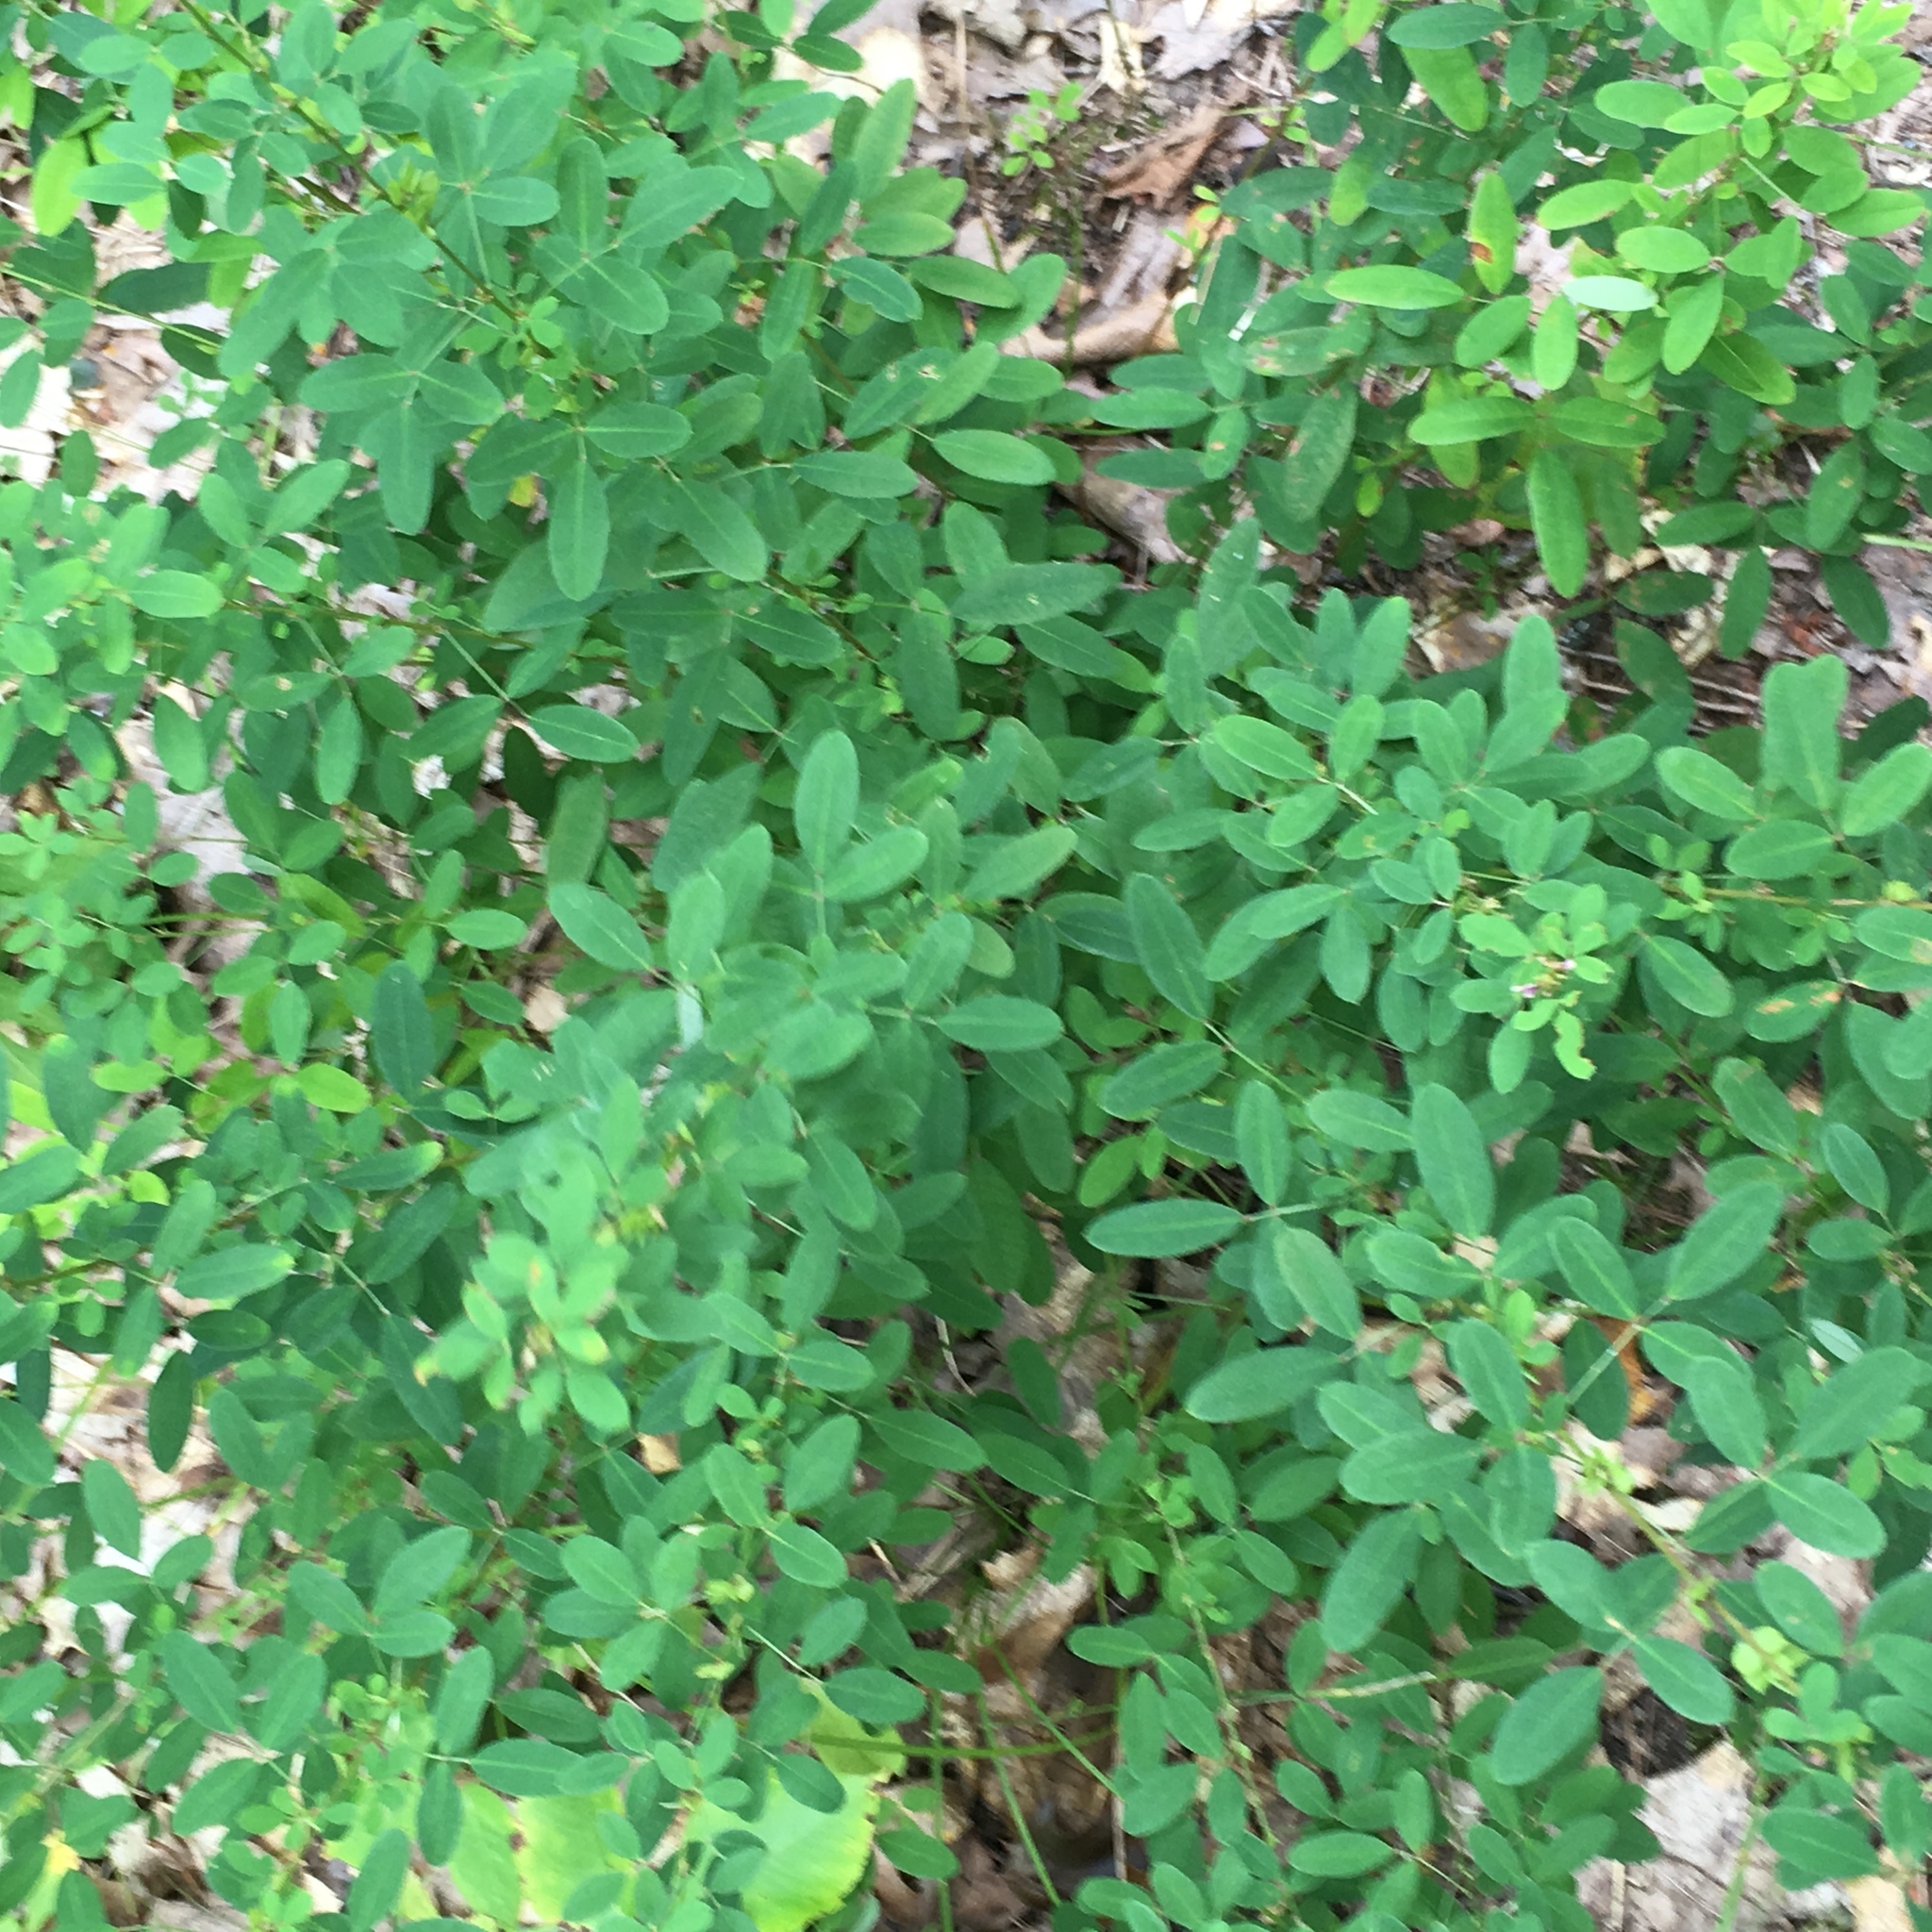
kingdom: Plantae
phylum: Tracheophyta
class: Magnoliopsida
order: Fabales
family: Fabaceae
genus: Lespedeza
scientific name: Lespedeza violacea
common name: Wand bush-clover
